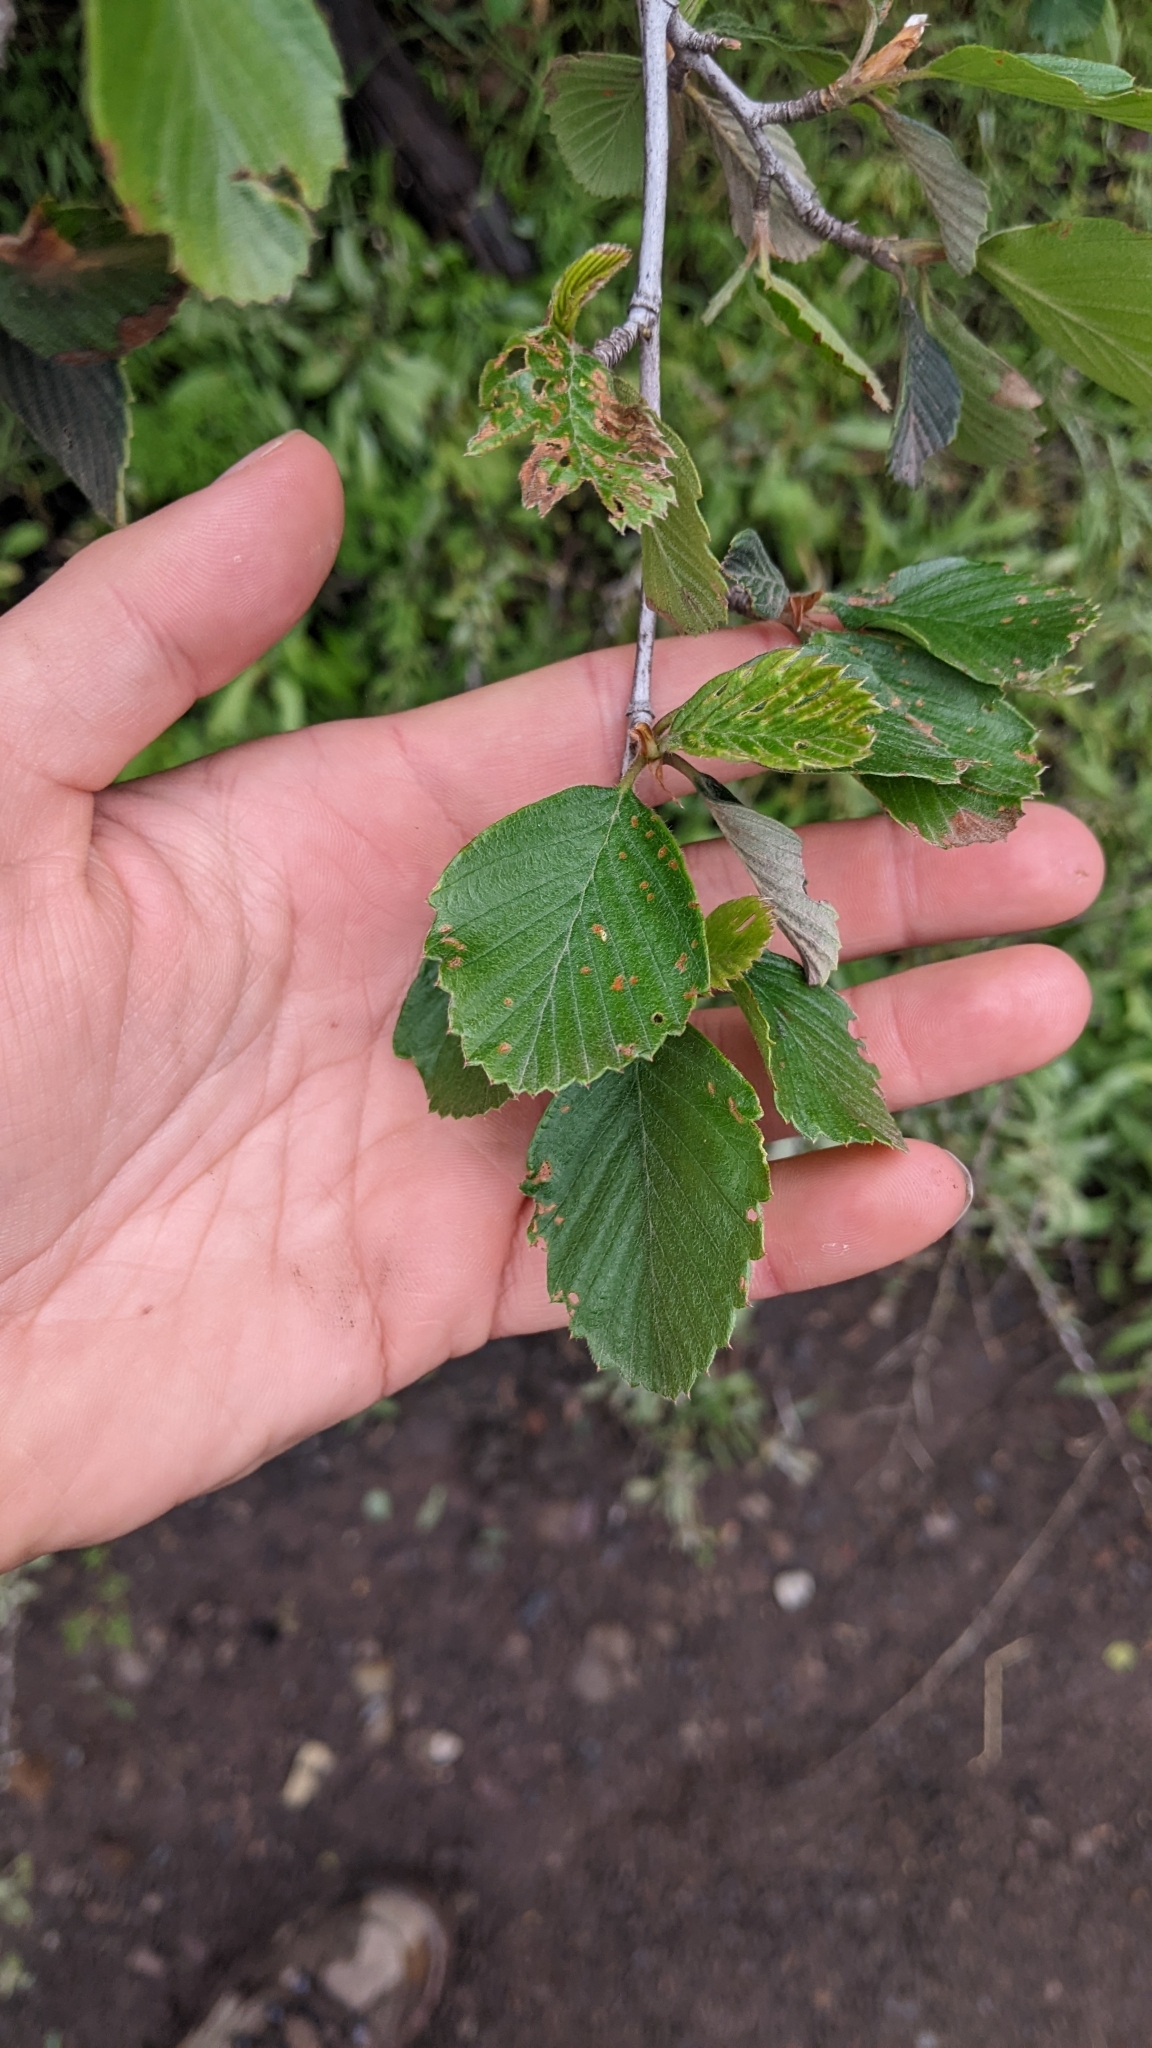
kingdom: Plantae
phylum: Tracheophyta
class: Magnoliopsida
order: Rosales
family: Rosaceae
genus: Cercocarpus
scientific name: Cercocarpus betuloides
